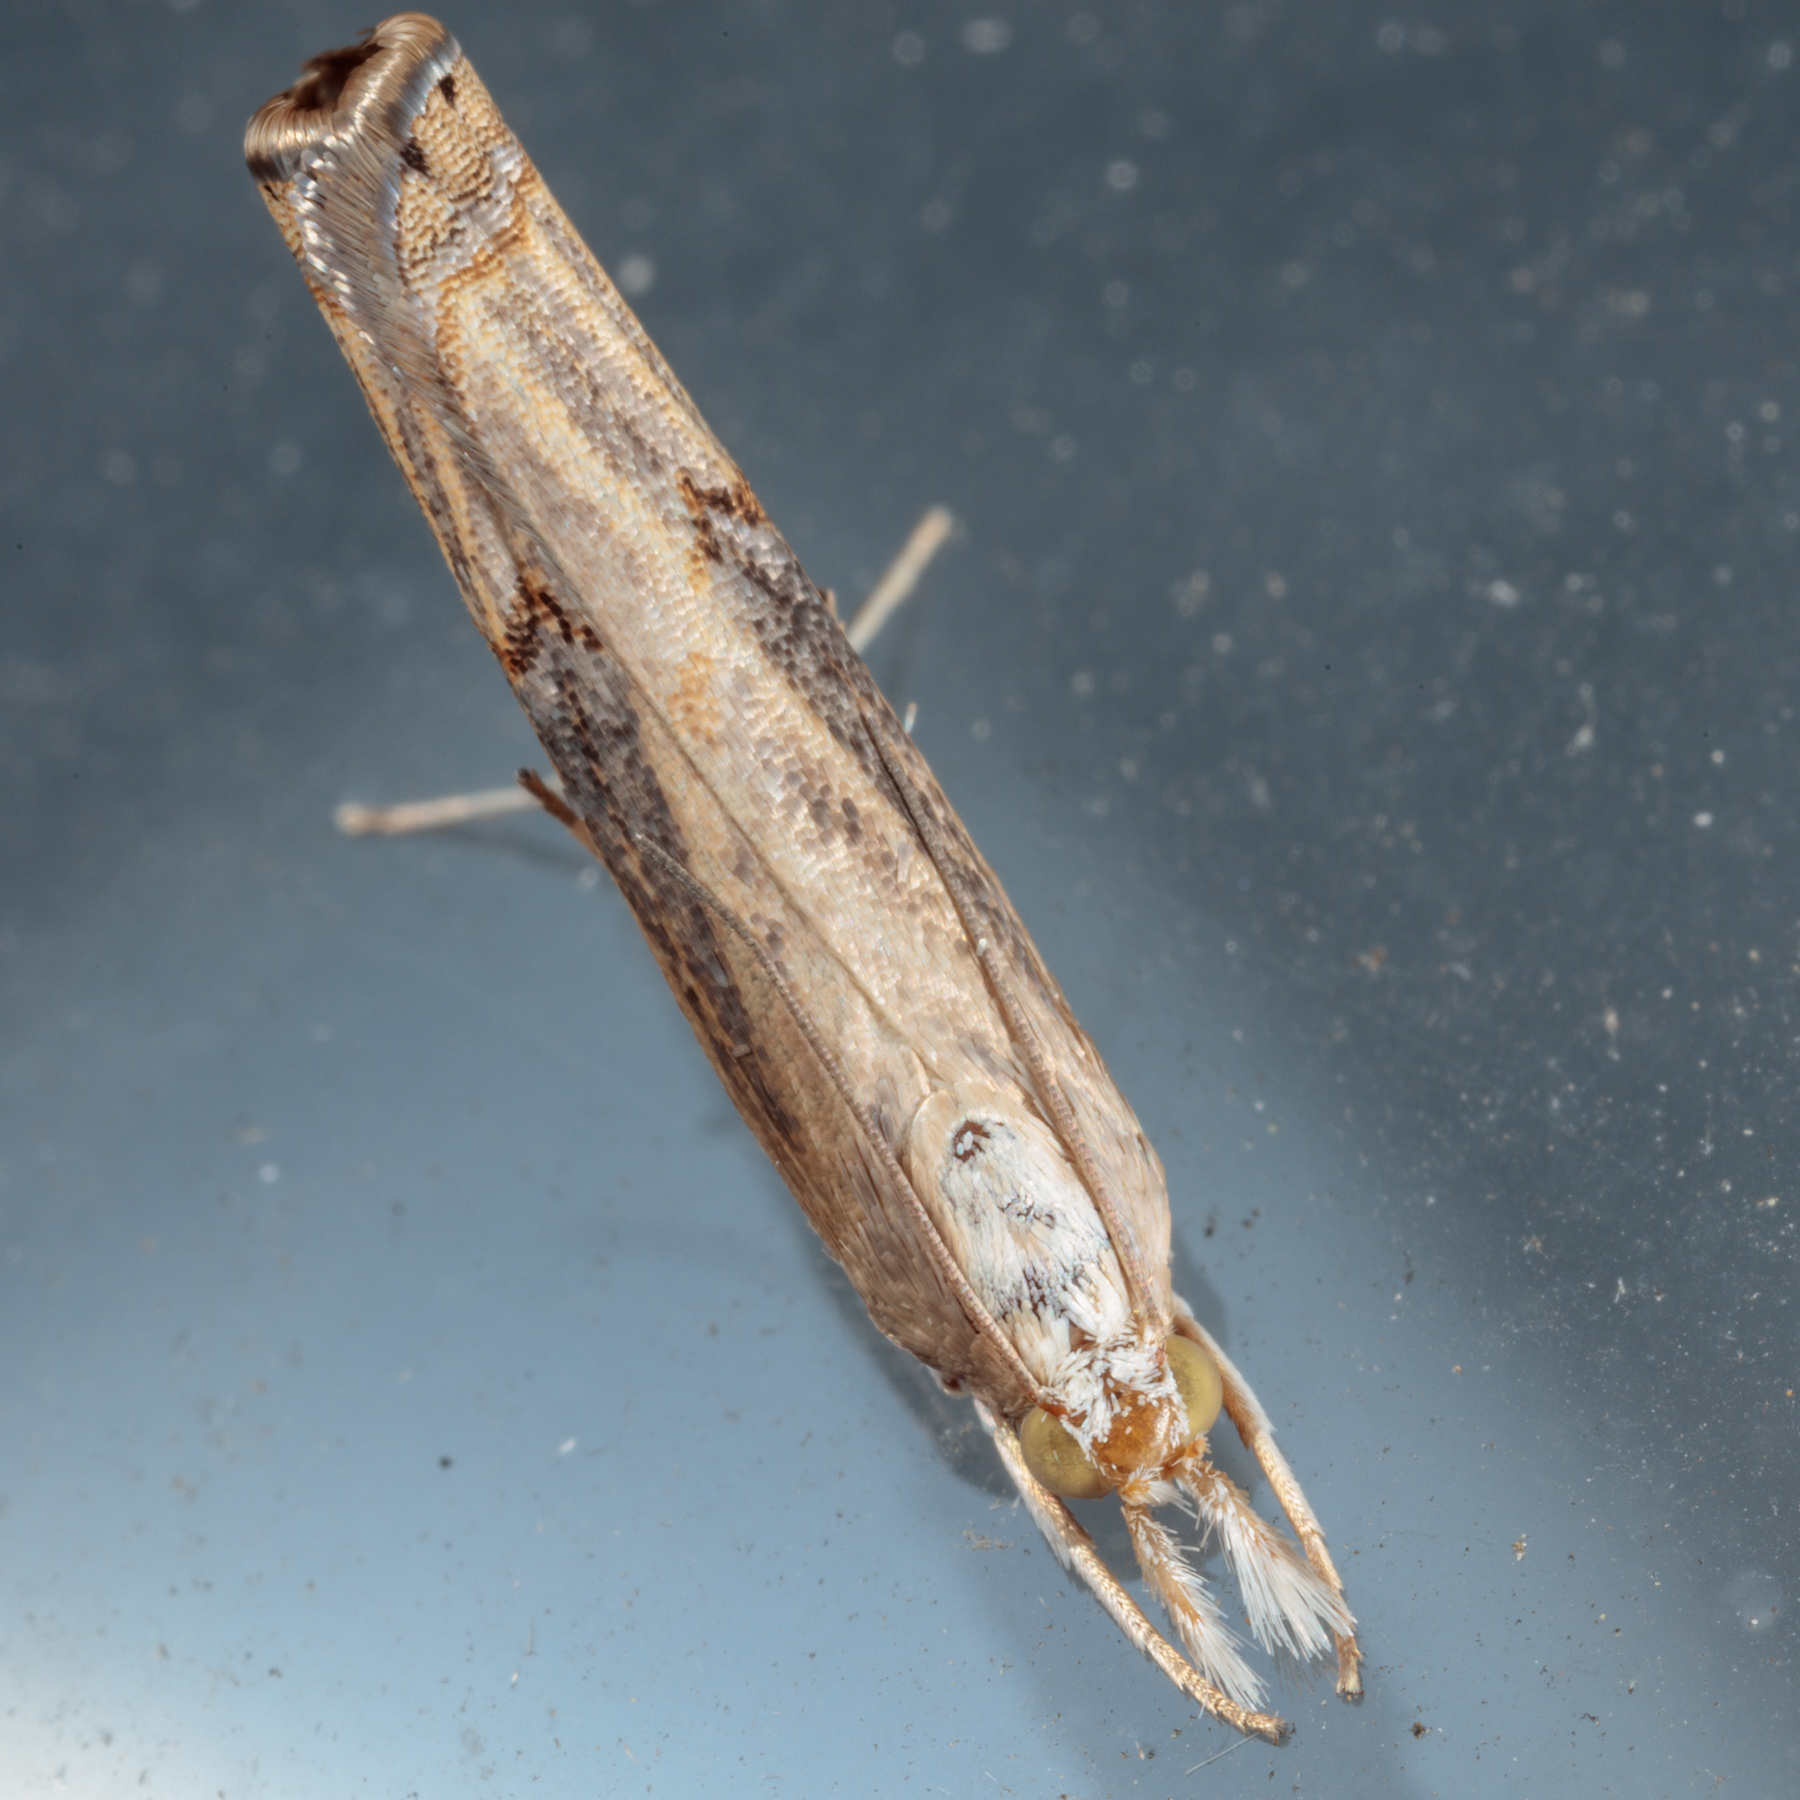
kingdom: Animalia
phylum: Arthropoda
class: Insecta
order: Lepidoptera
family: Crambidae
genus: Parapediasia
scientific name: Parapediasia teterellus
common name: Bluegrass webworm moth
